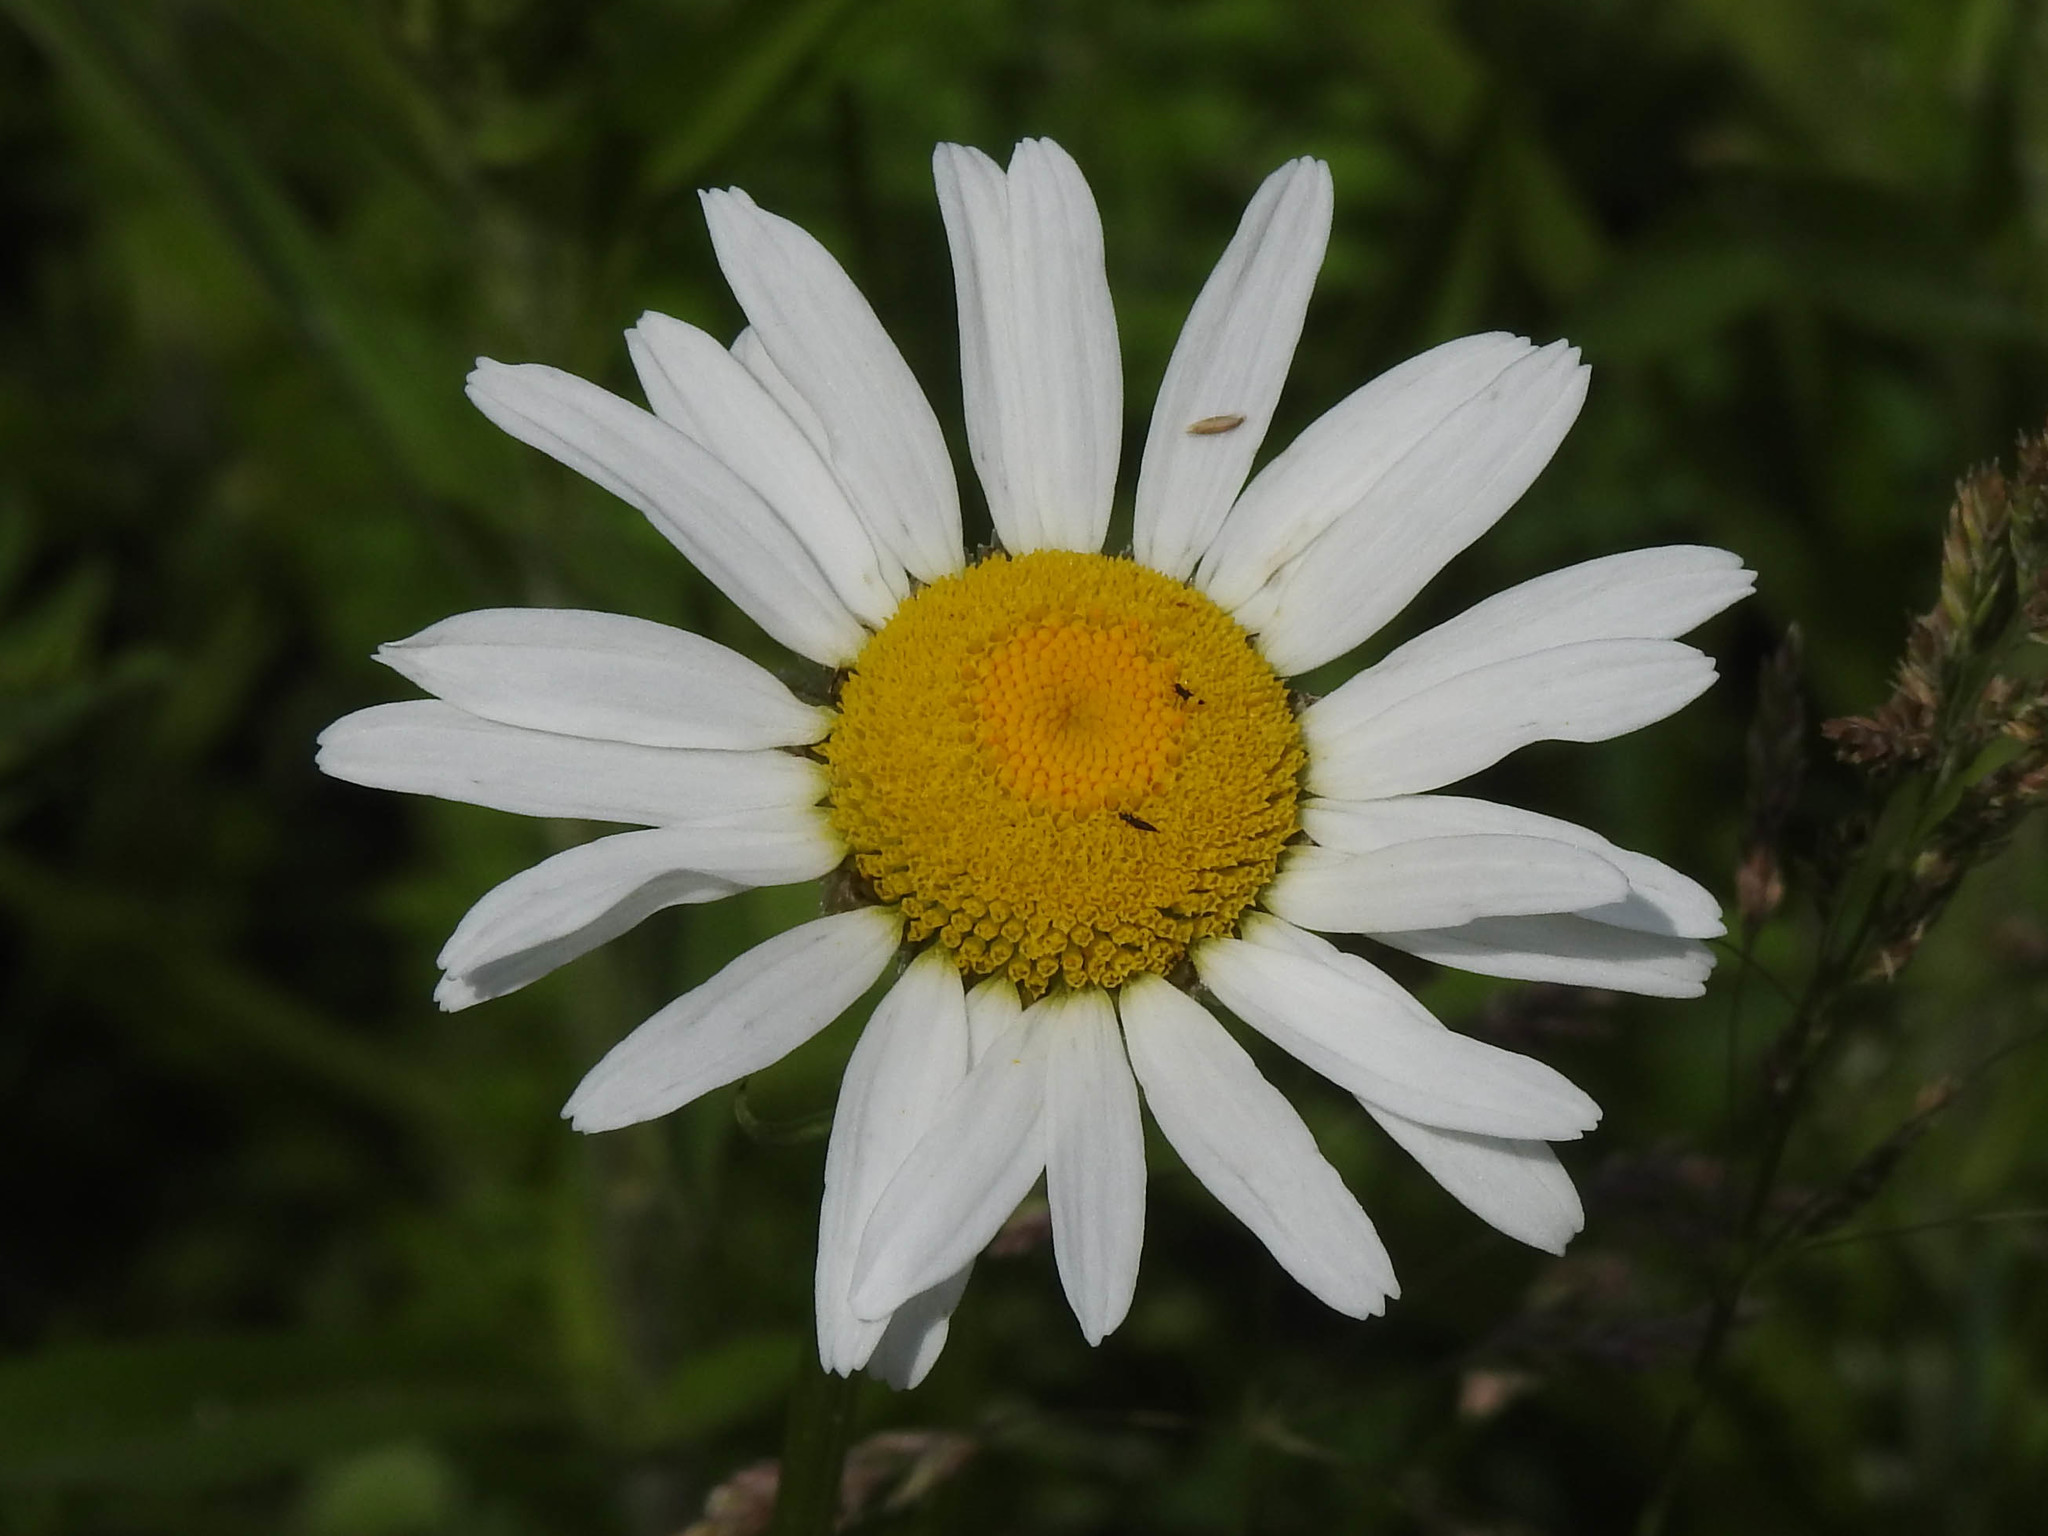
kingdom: Plantae
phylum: Tracheophyta
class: Magnoliopsida
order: Asterales
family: Asteraceae
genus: Leucanthemum
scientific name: Leucanthemum
